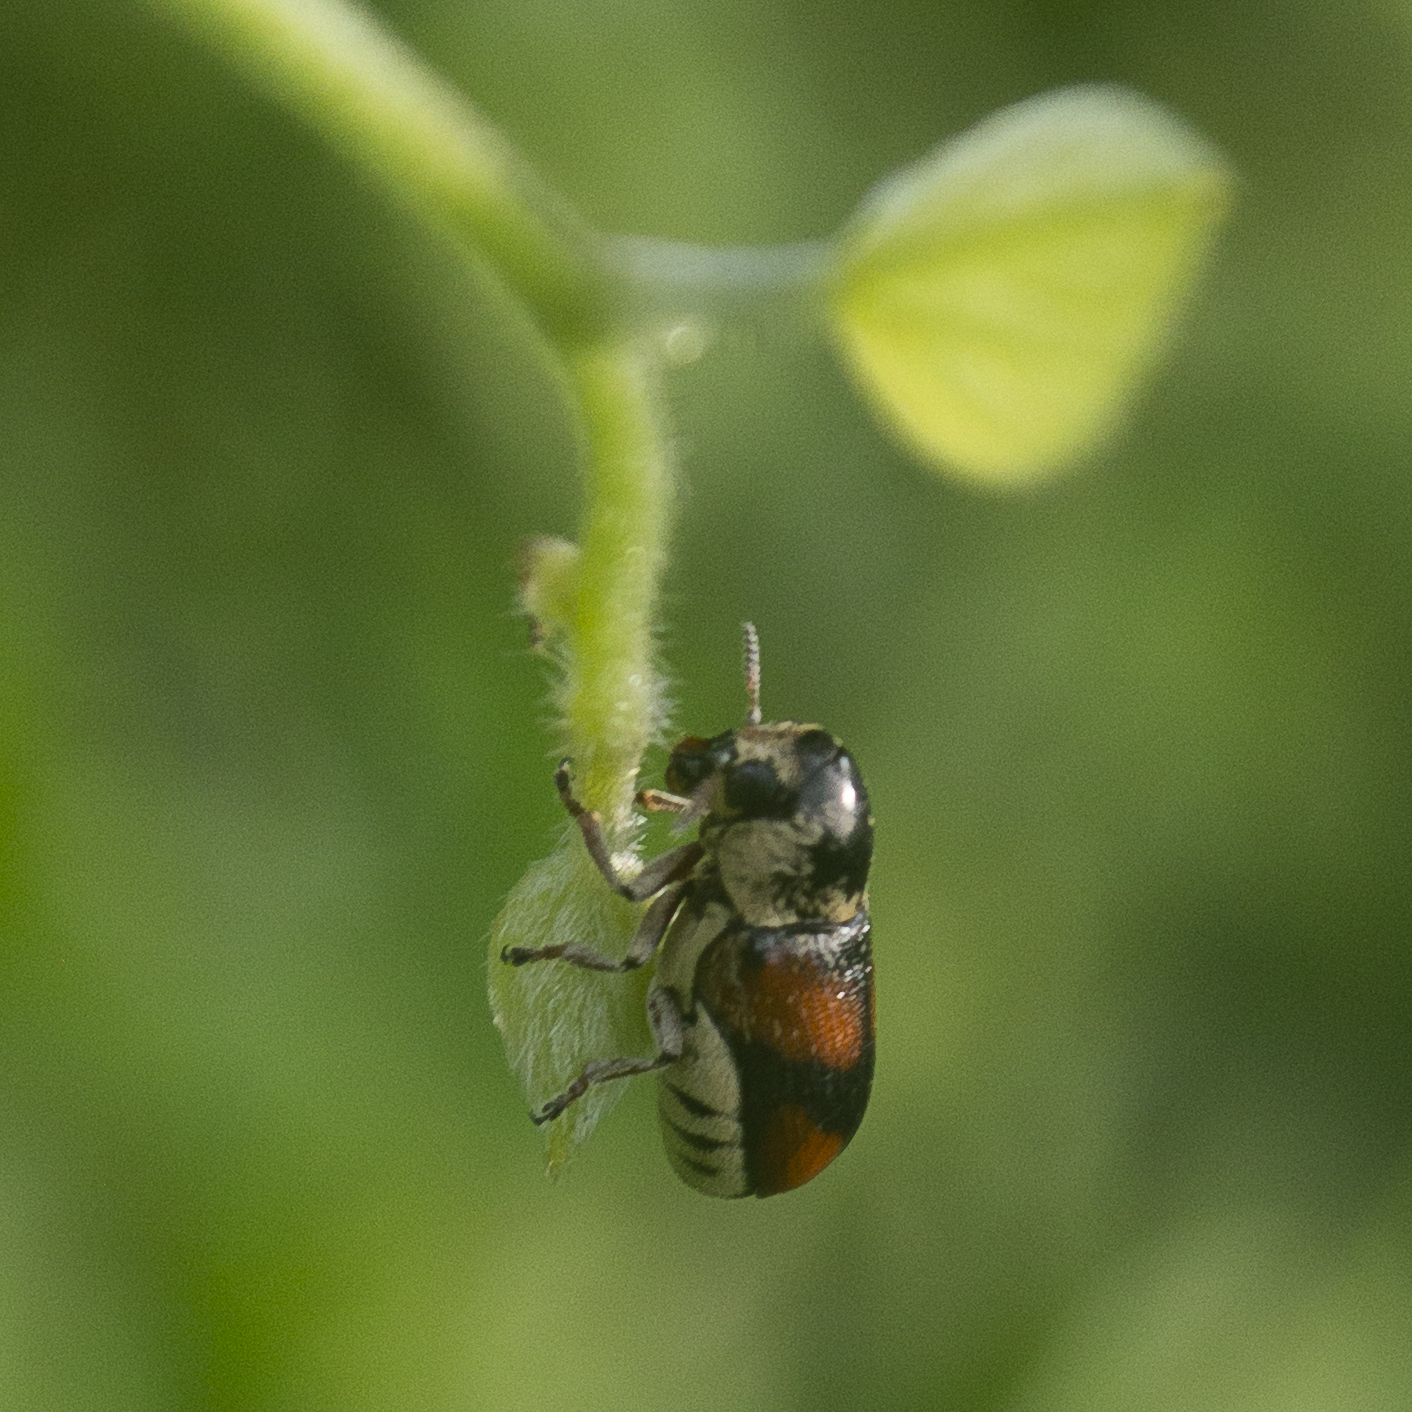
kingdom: Animalia
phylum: Arthropoda
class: Insecta
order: Coleoptera
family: Chrysomelidae
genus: Euryscopa
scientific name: Euryscopa cingulata
